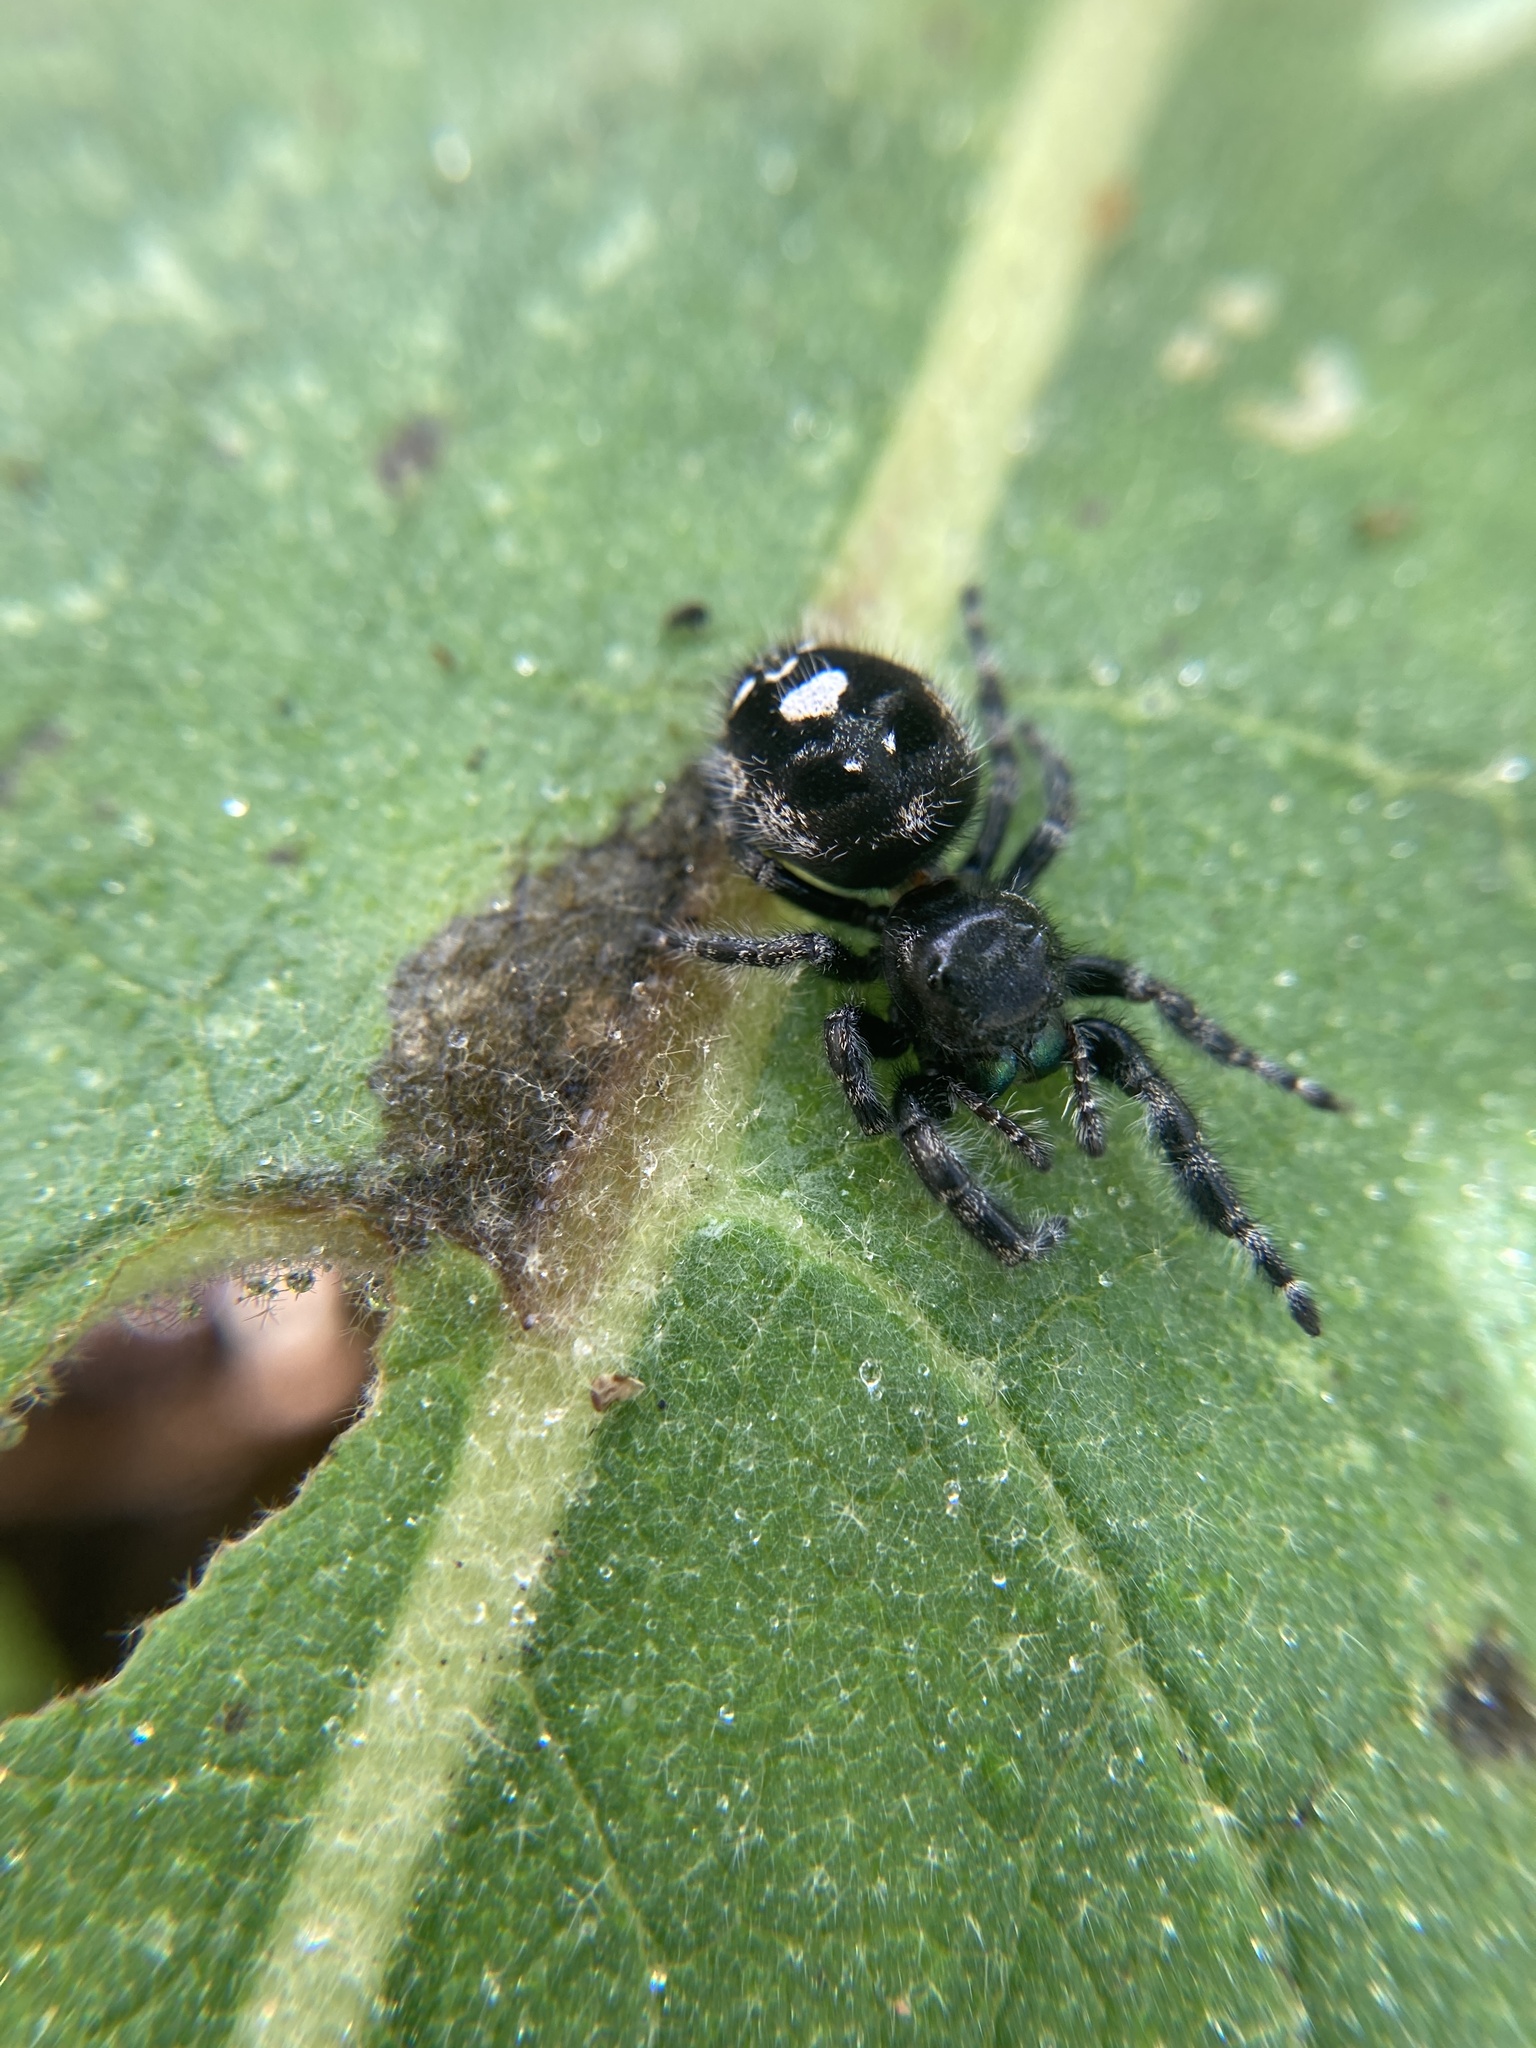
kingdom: Animalia
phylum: Arthropoda
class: Arachnida
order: Araneae
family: Salticidae
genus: Phidippus
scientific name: Phidippus audax
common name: Bold jumper
